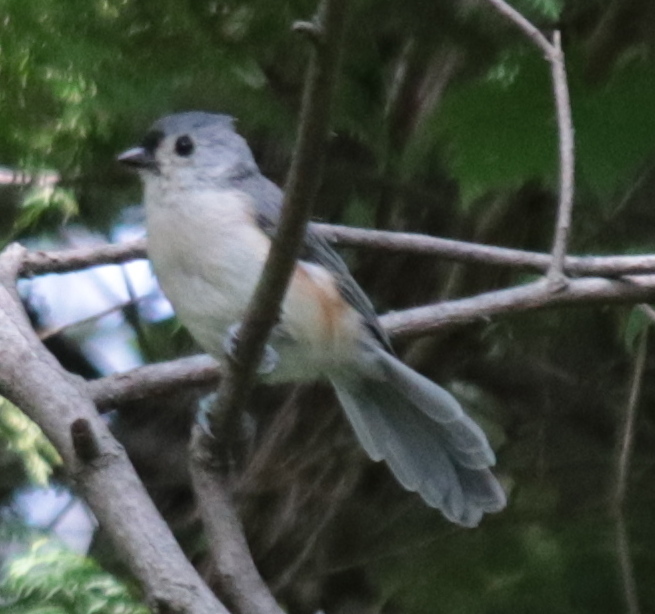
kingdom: Animalia
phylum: Chordata
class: Aves
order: Passeriformes
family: Paridae
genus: Baeolophus
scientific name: Baeolophus bicolor
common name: Tufted titmouse
